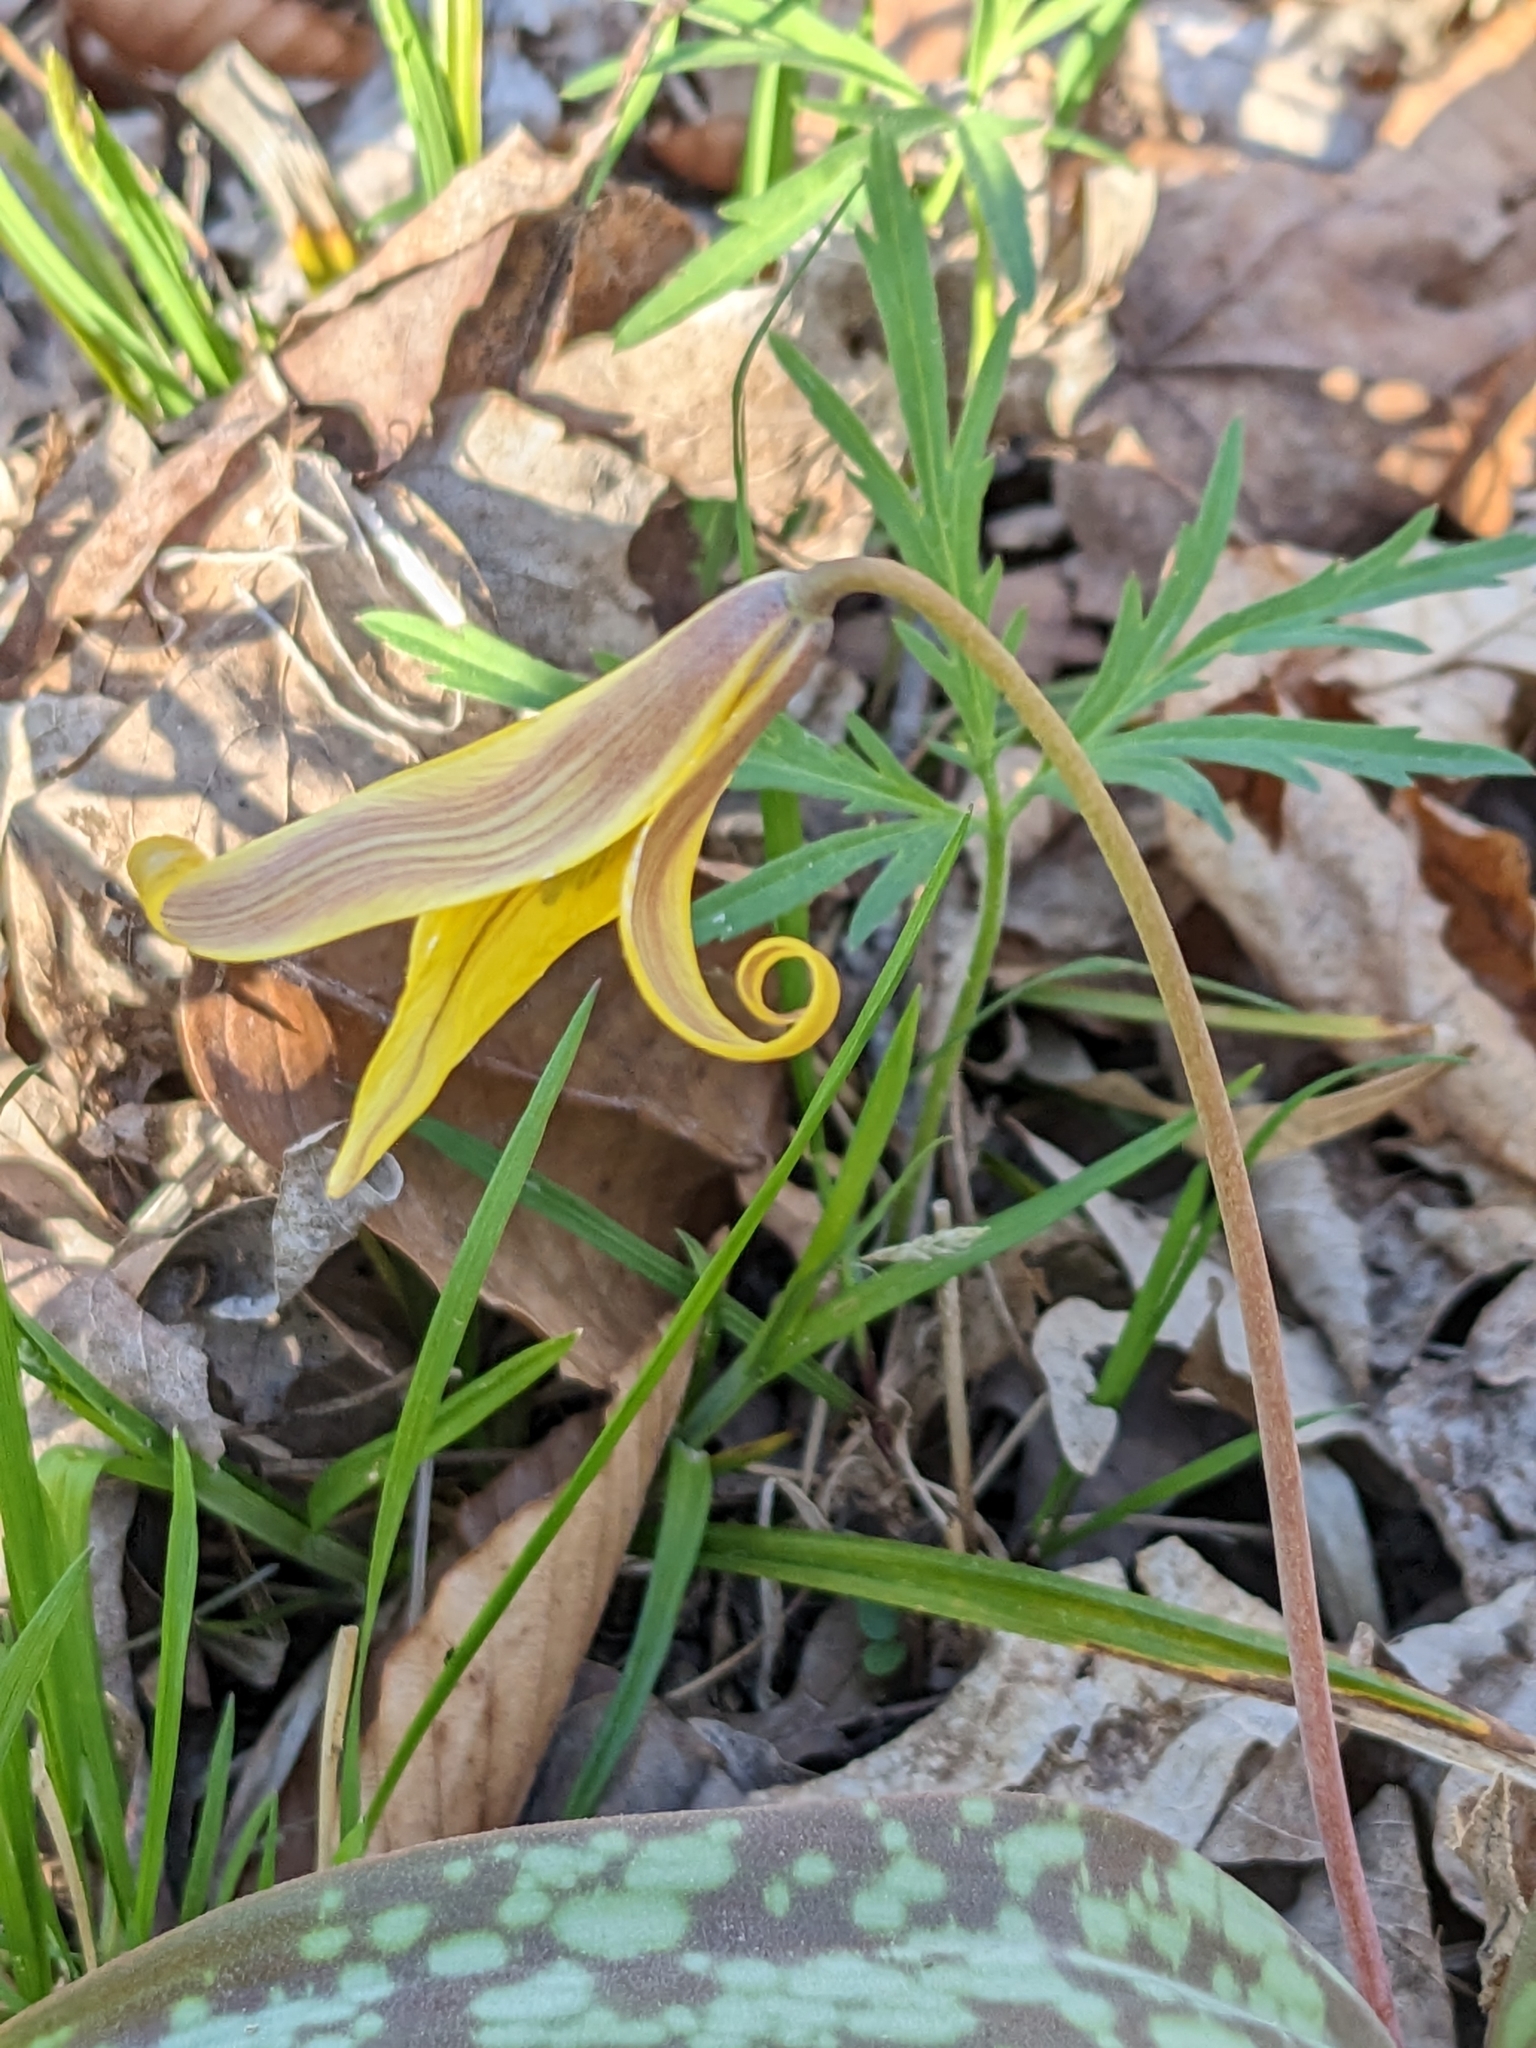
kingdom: Plantae
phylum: Tracheophyta
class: Liliopsida
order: Liliales
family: Liliaceae
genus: Erythronium
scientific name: Erythronium americanum
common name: Yellow adder's-tongue
